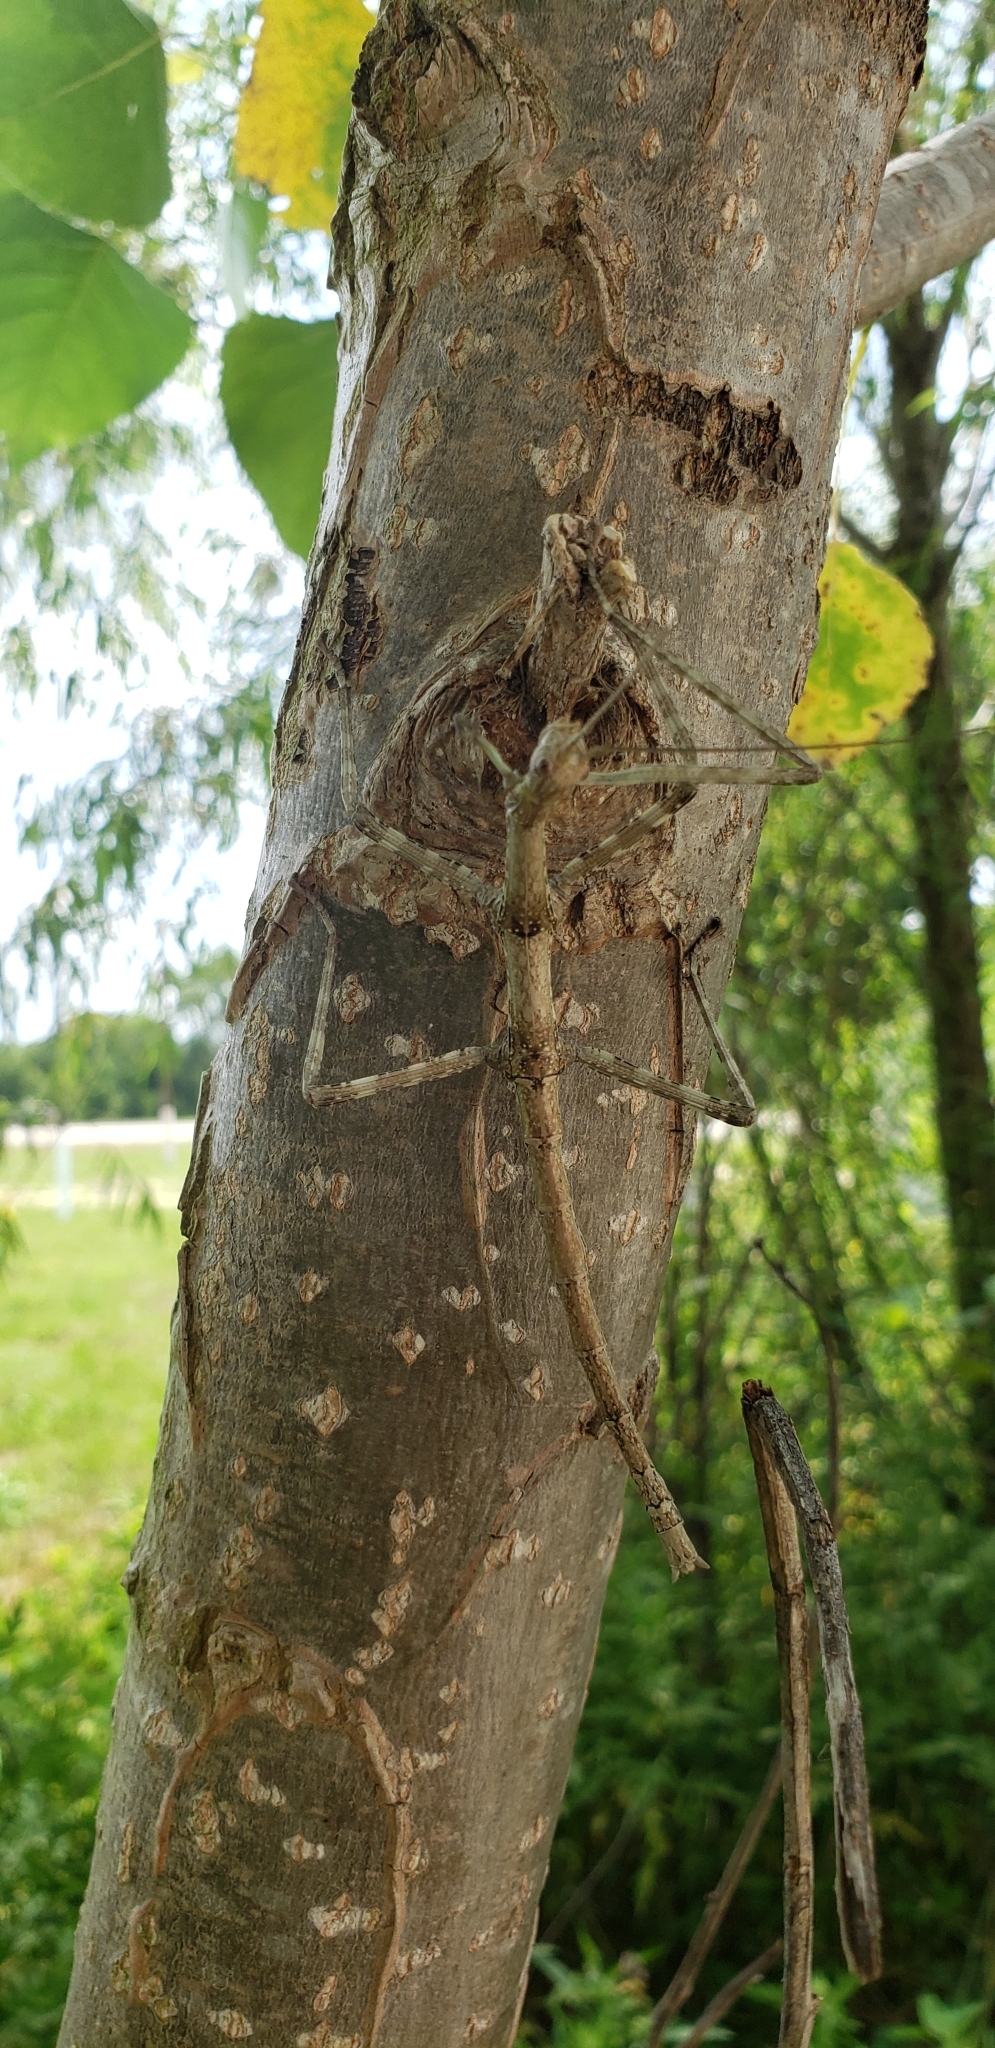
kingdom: Animalia
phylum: Arthropoda
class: Insecta
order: Phasmida
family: Diapheromeridae
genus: Megaphasma
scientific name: Megaphasma denticrus
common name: Giant walkingstick
